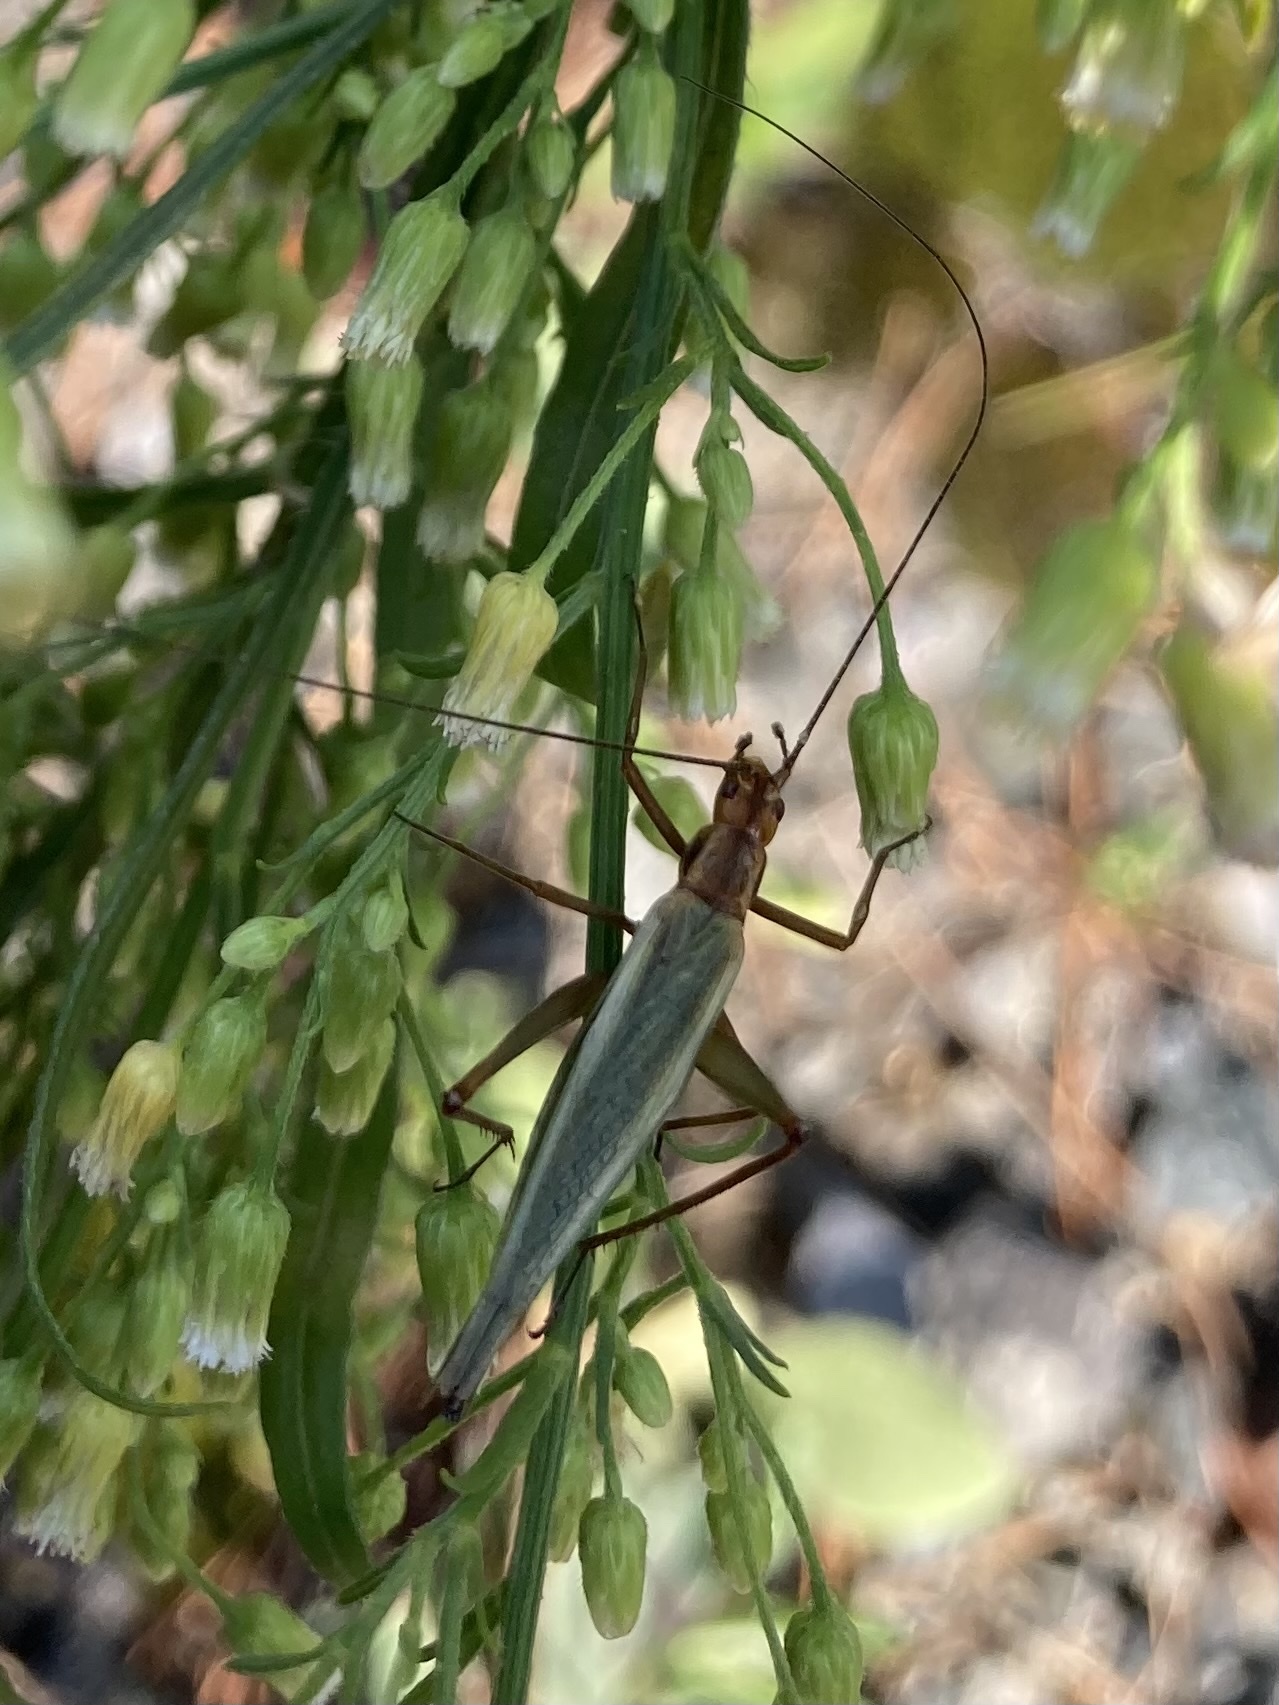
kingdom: Animalia
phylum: Arthropoda
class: Insecta
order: Orthoptera
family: Gryllidae
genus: Oecanthus
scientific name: Oecanthus pini
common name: Pine tree cricket
